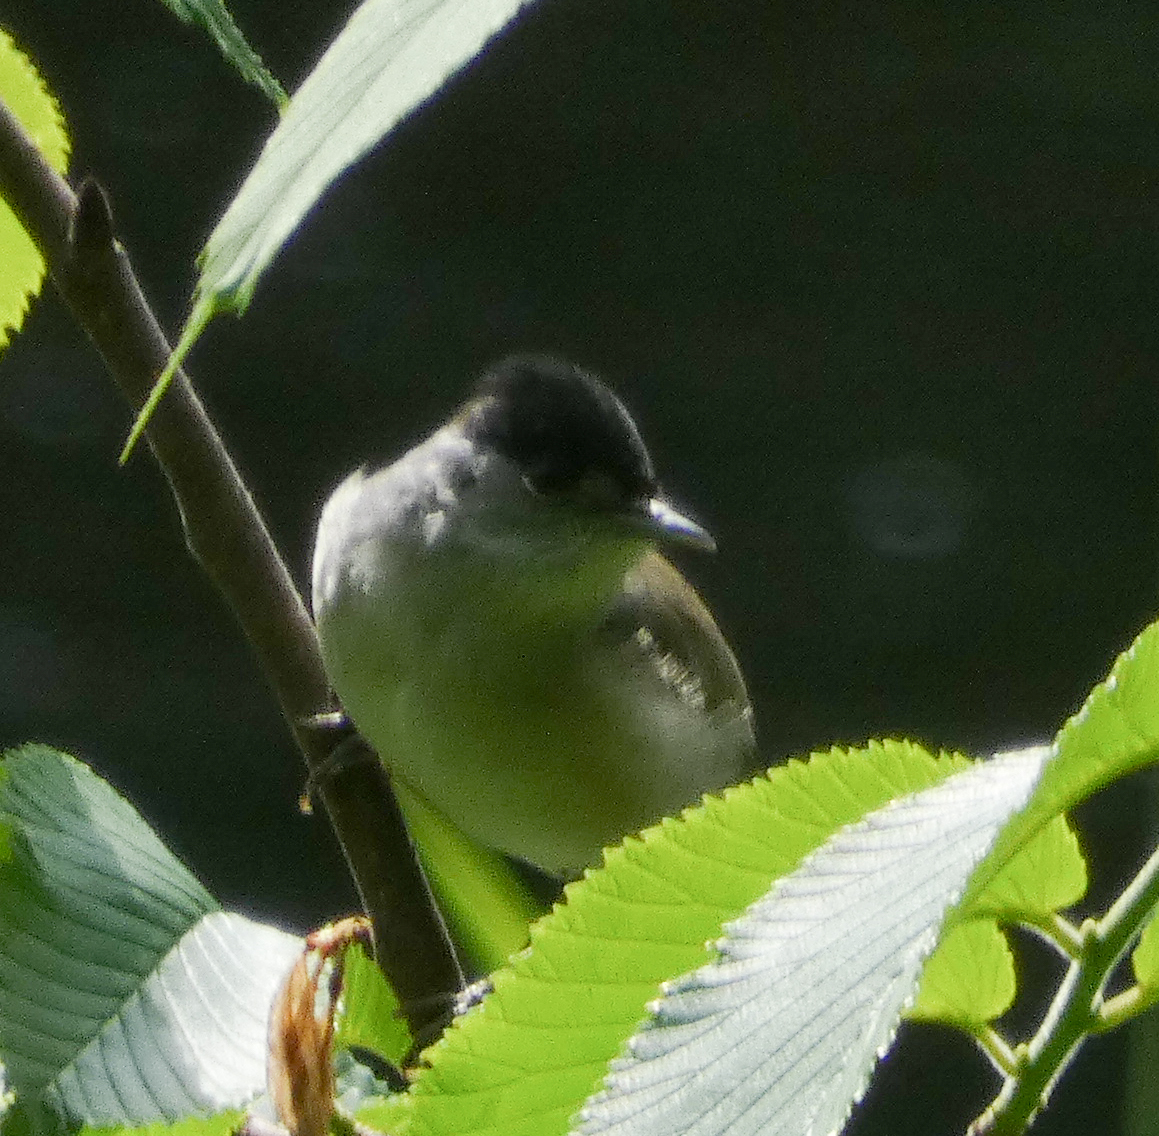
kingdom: Animalia
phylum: Chordata
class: Aves
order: Passeriformes
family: Sylviidae
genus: Sylvia
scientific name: Sylvia atricapilla
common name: Eurasian blackcap
